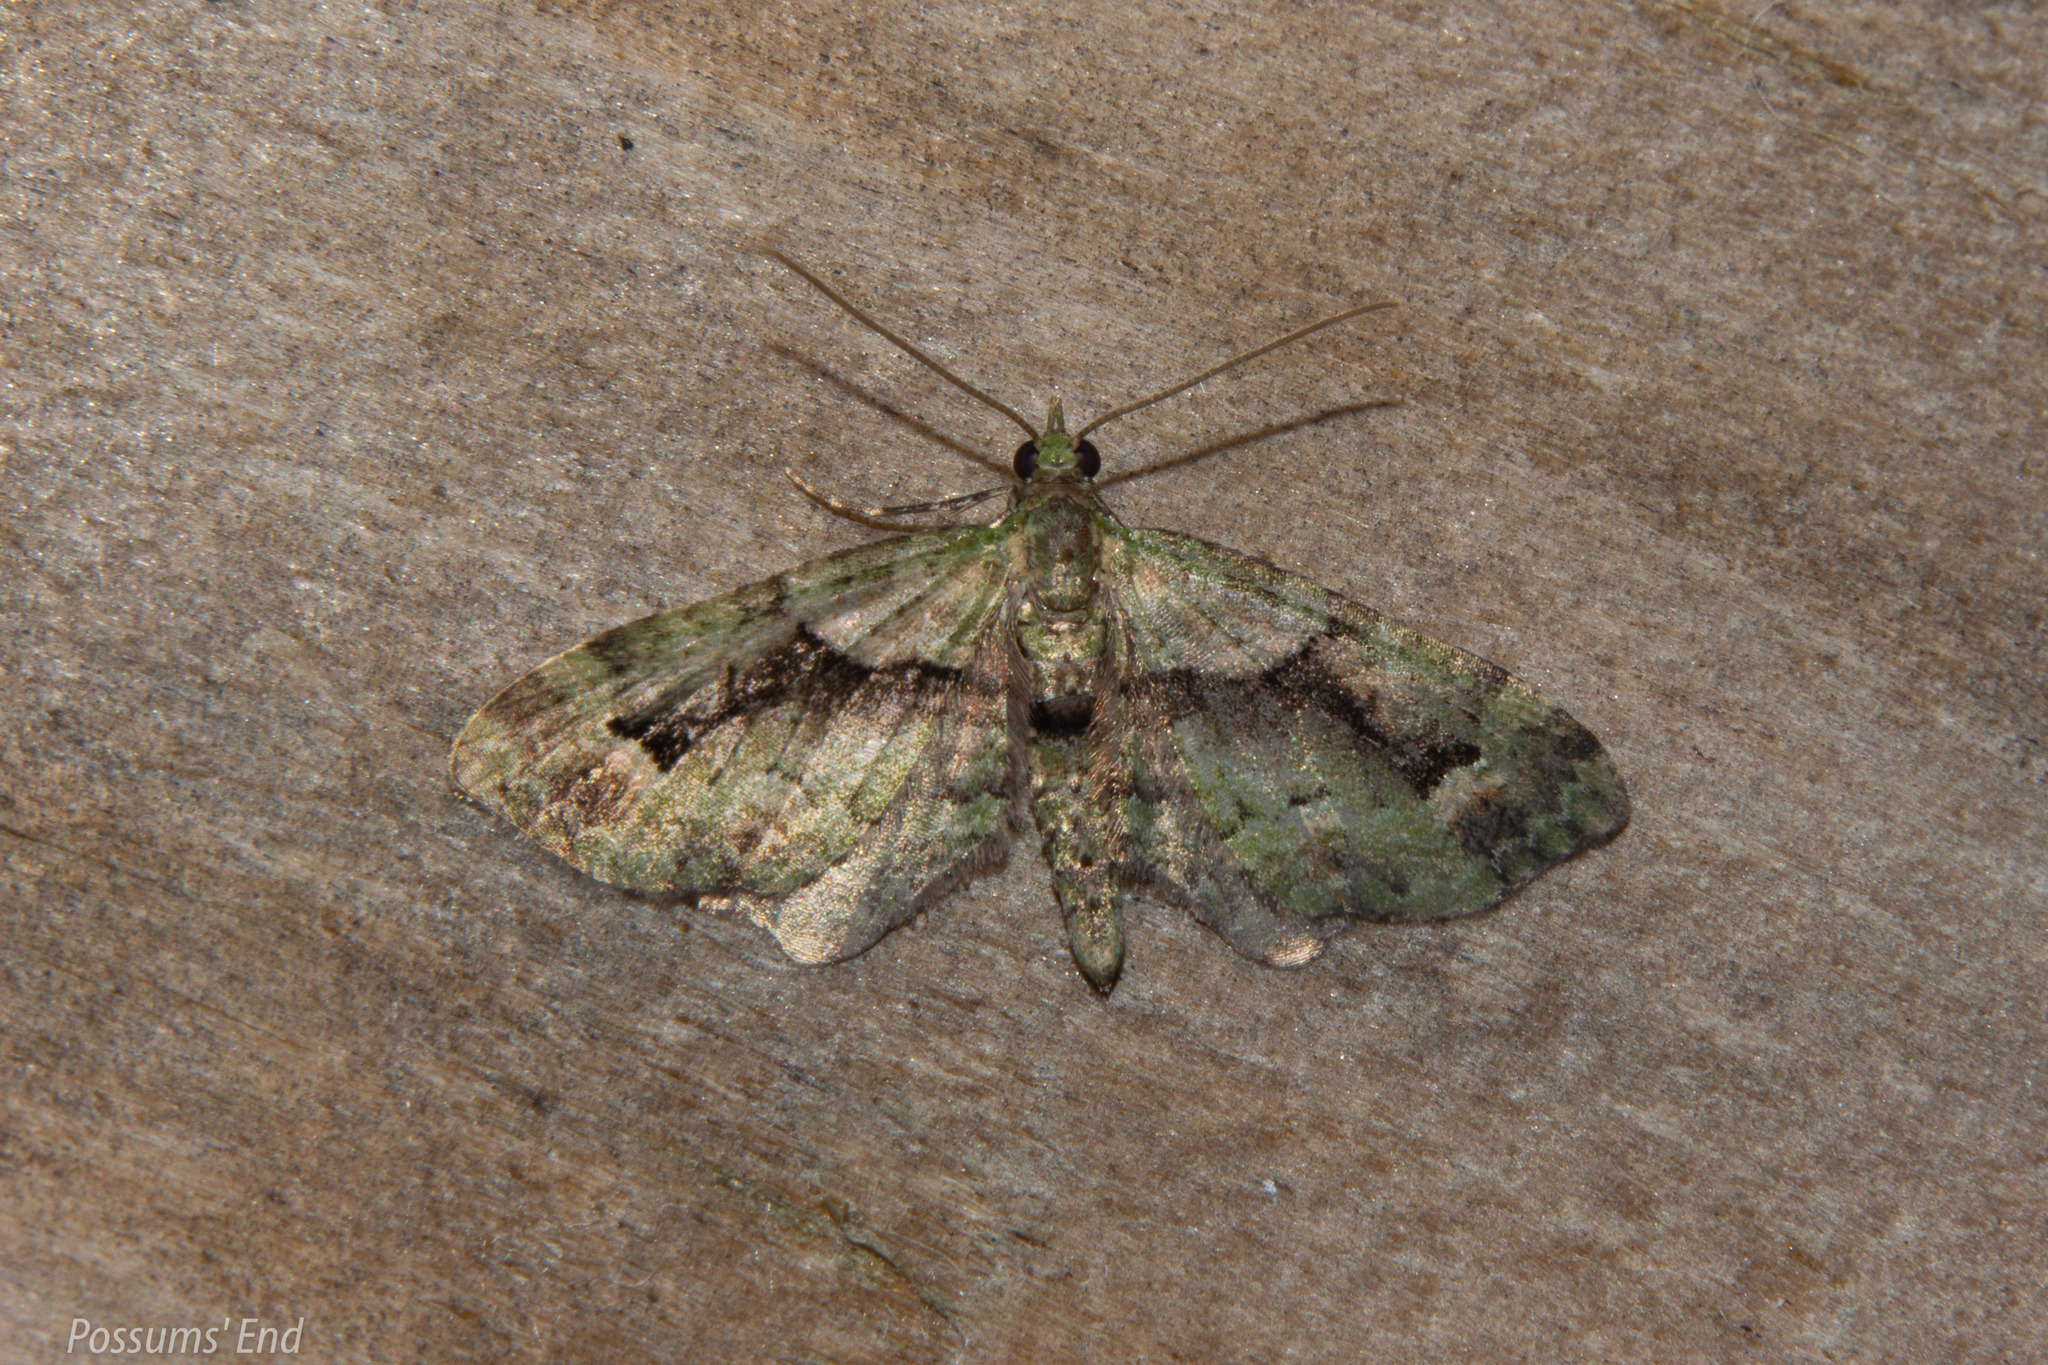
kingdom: Animalia
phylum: Arthropoda
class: Insecta
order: Lepidoptera
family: Geometridae
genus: Pasiphila
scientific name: Pasiphila suffusa
